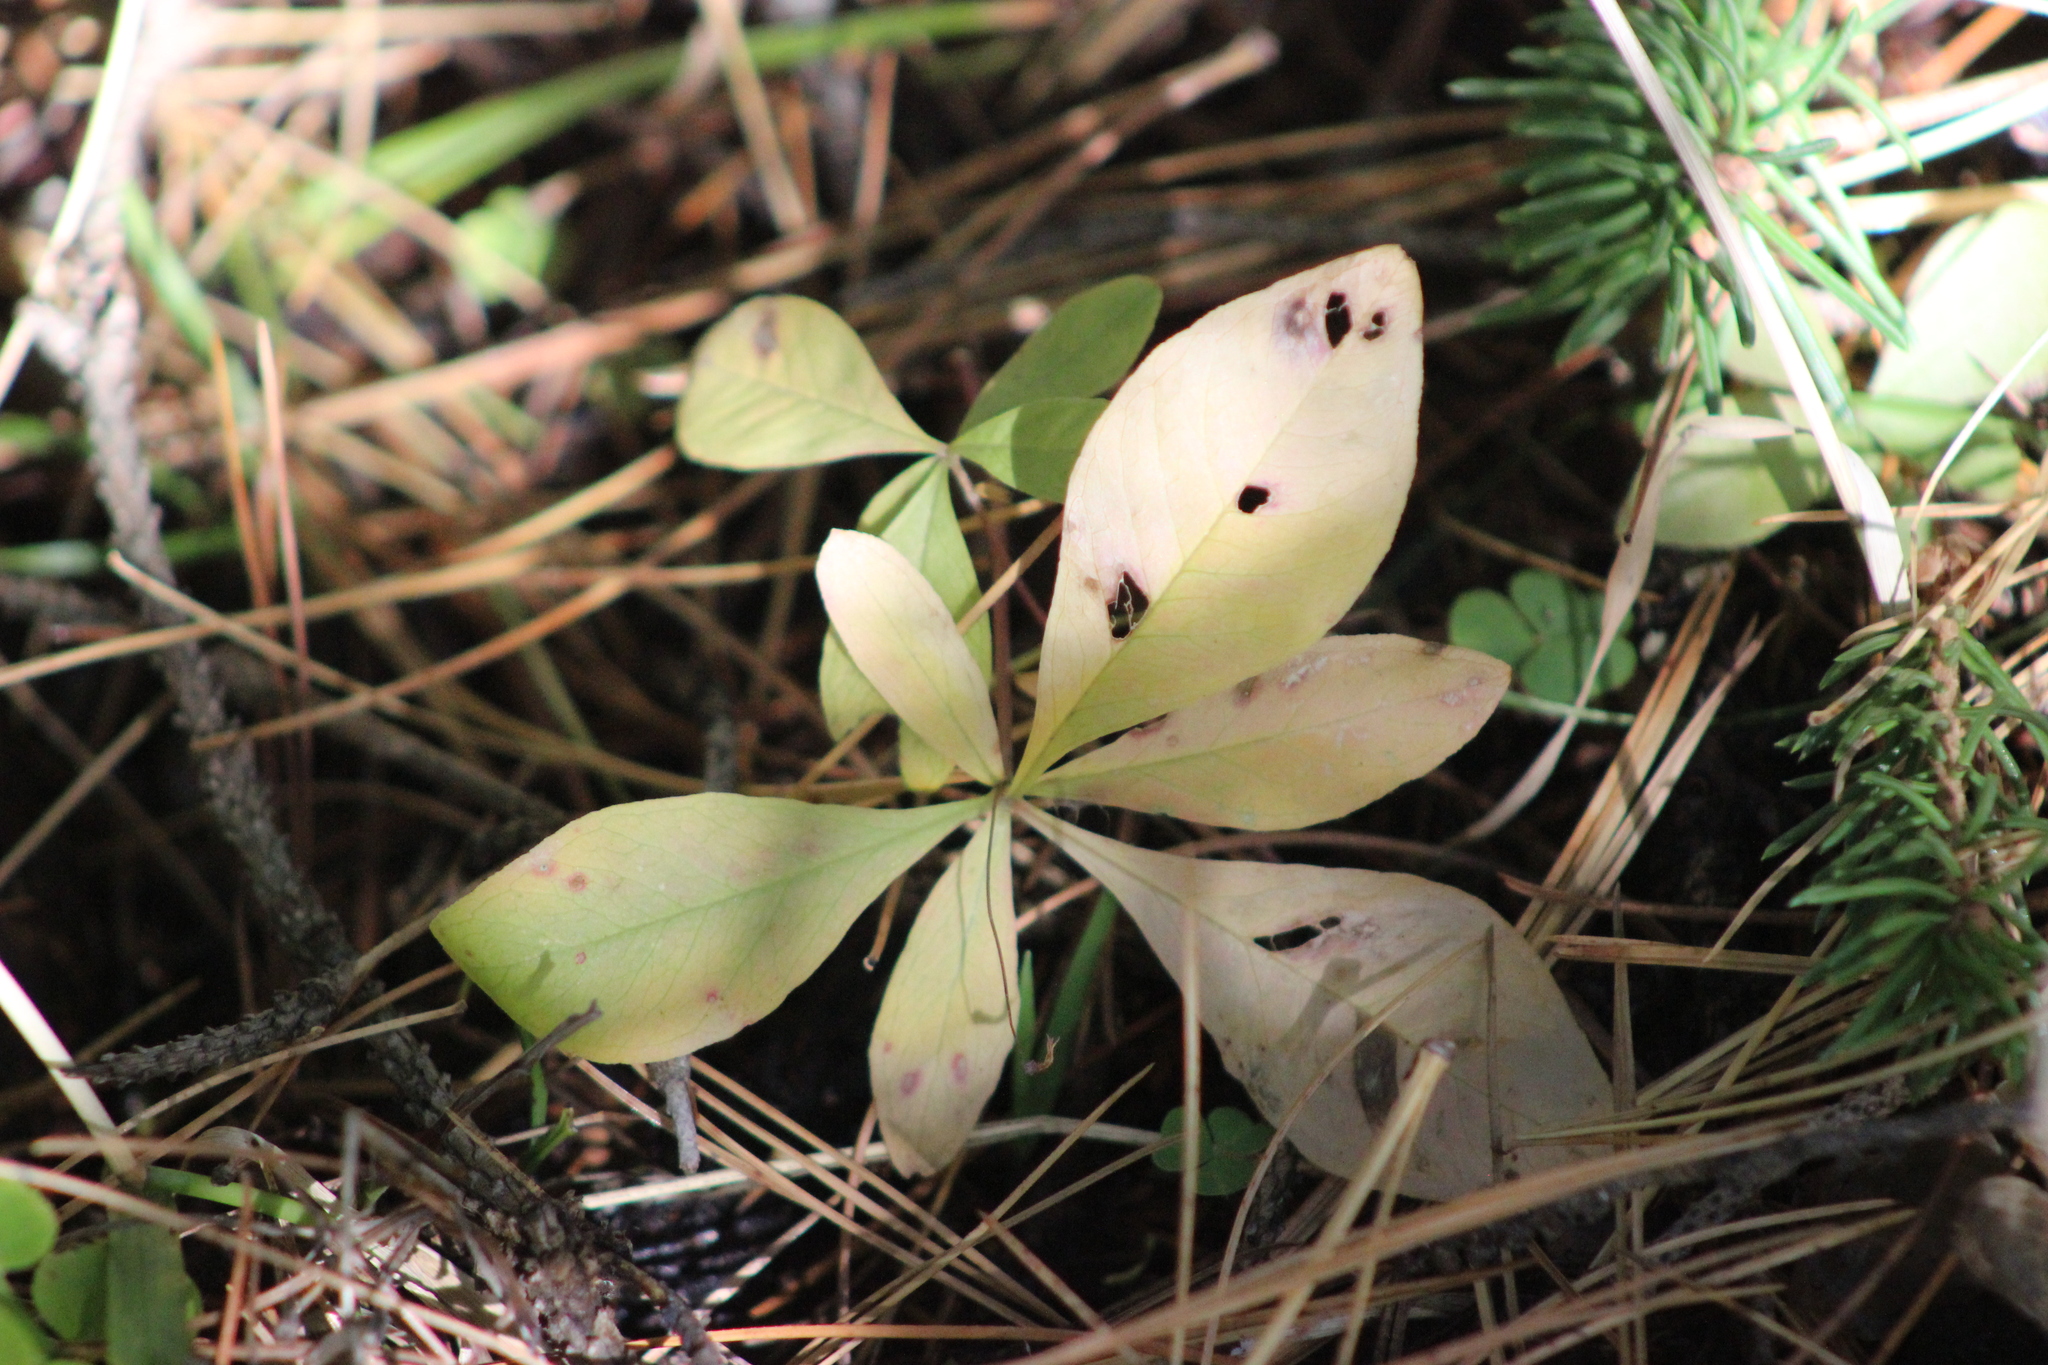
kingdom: Plantae
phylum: Tracheophyta
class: Magnoliopsida
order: Ericales
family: Primulaceae
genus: Lysimachia
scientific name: Lysimachia europaea
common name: Arctic starflower
